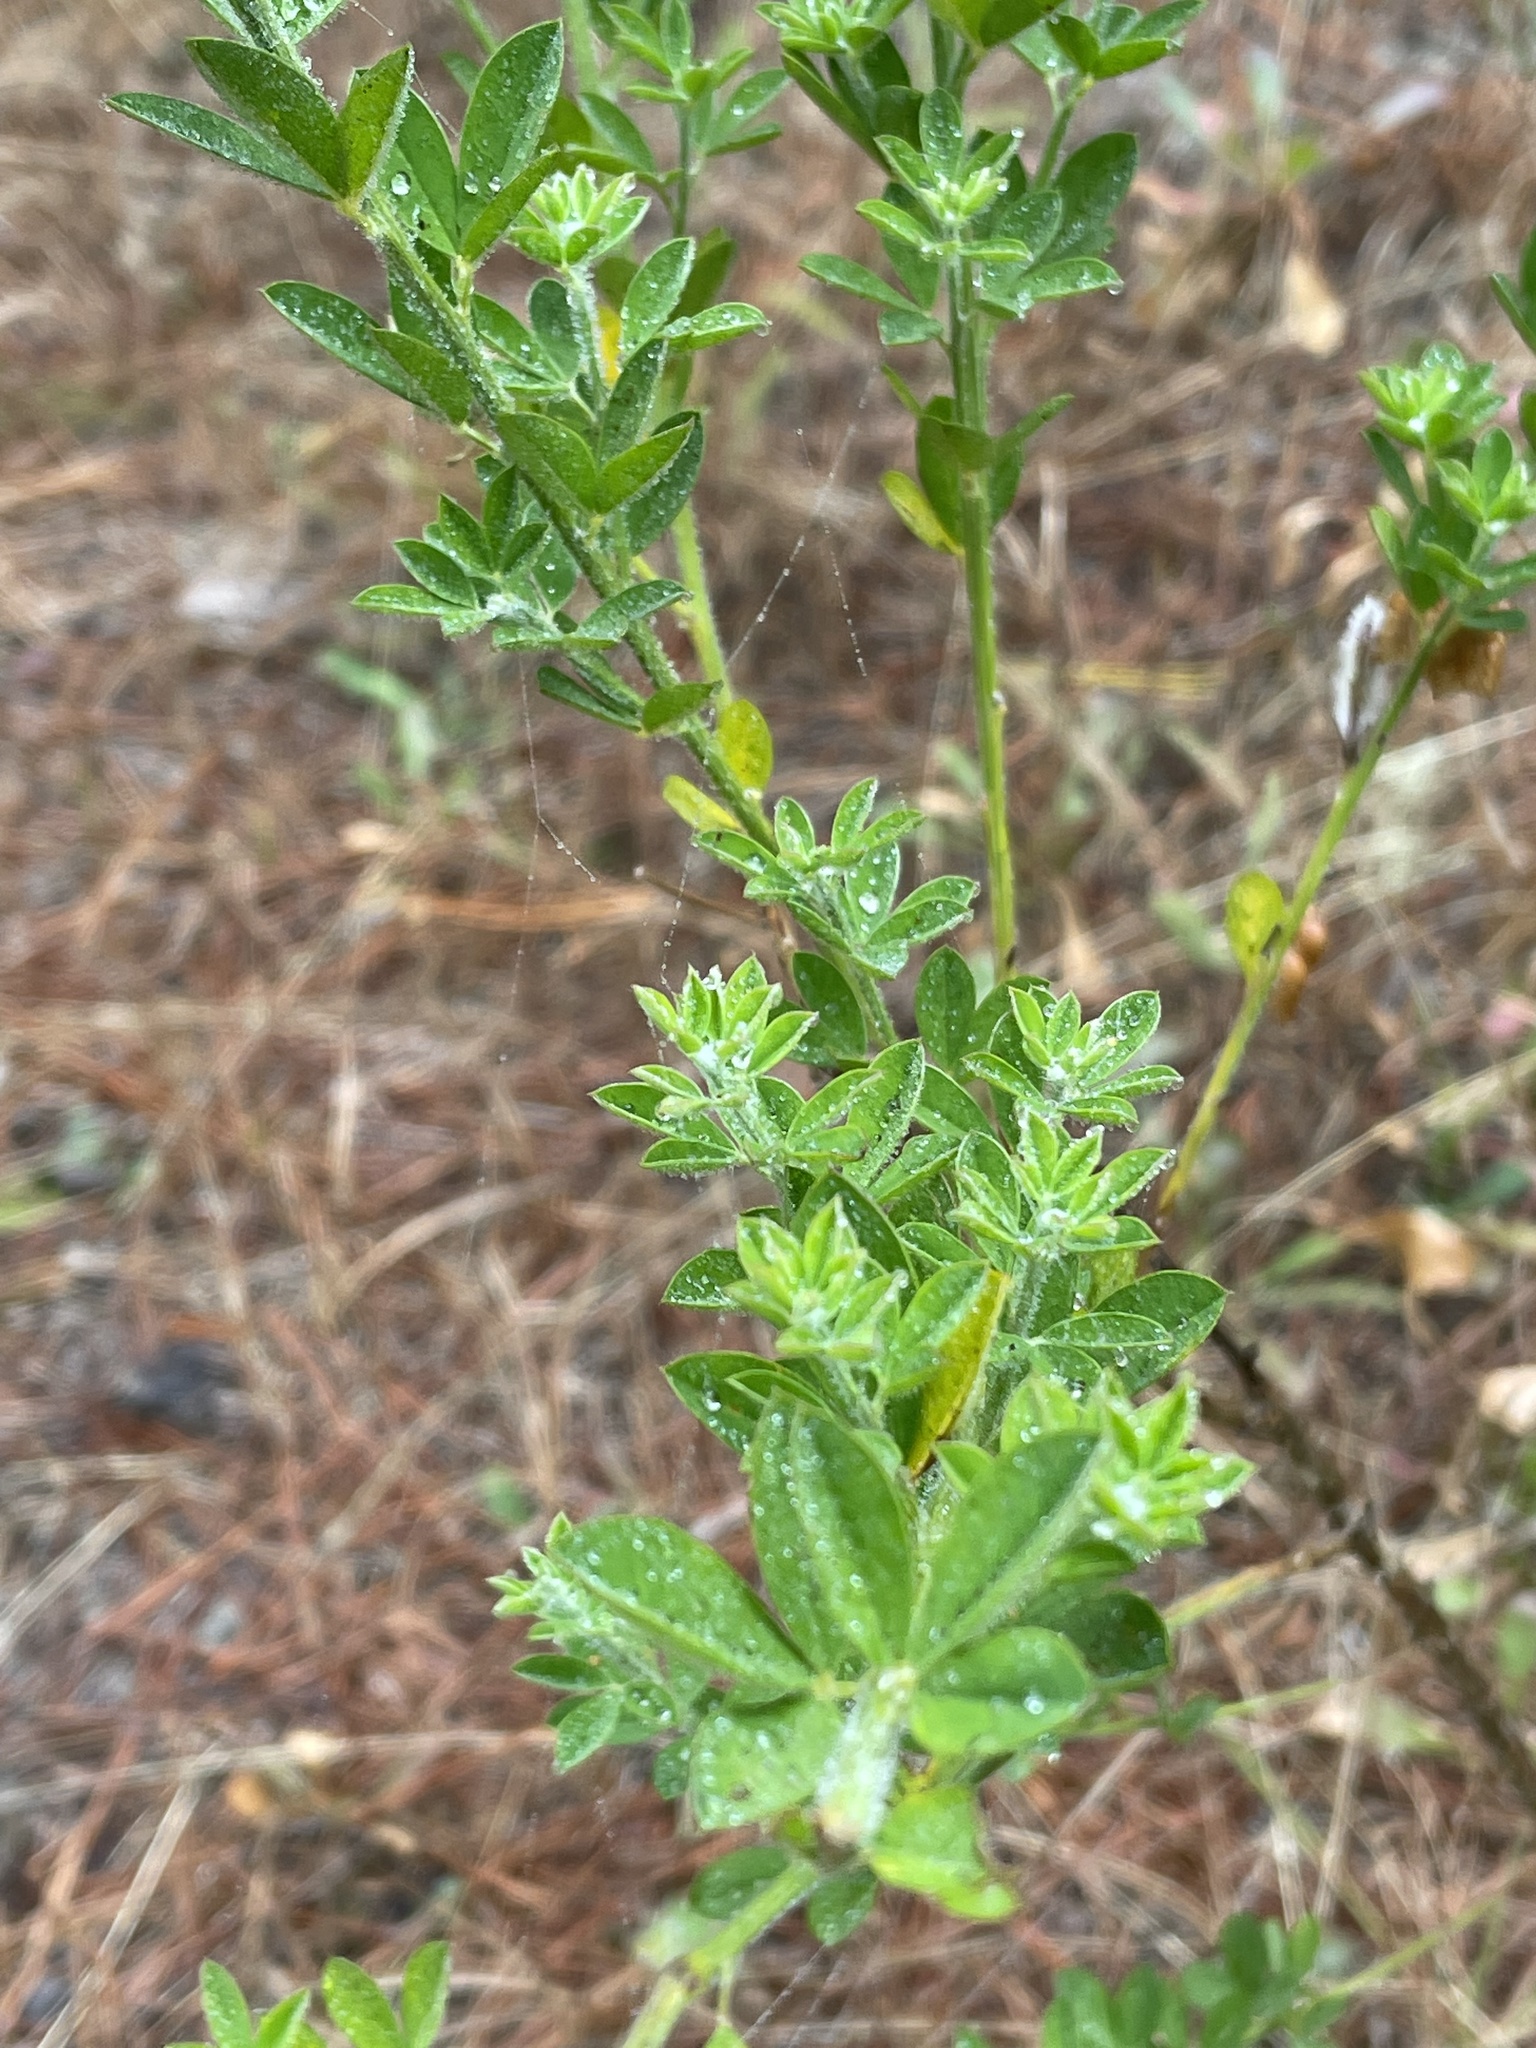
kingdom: Plantae
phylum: Tracheophyta
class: Magnoliopsida
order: Fabales
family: Fabaceae
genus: Genista
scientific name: Genista monspessulana
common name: Montpellier broom
